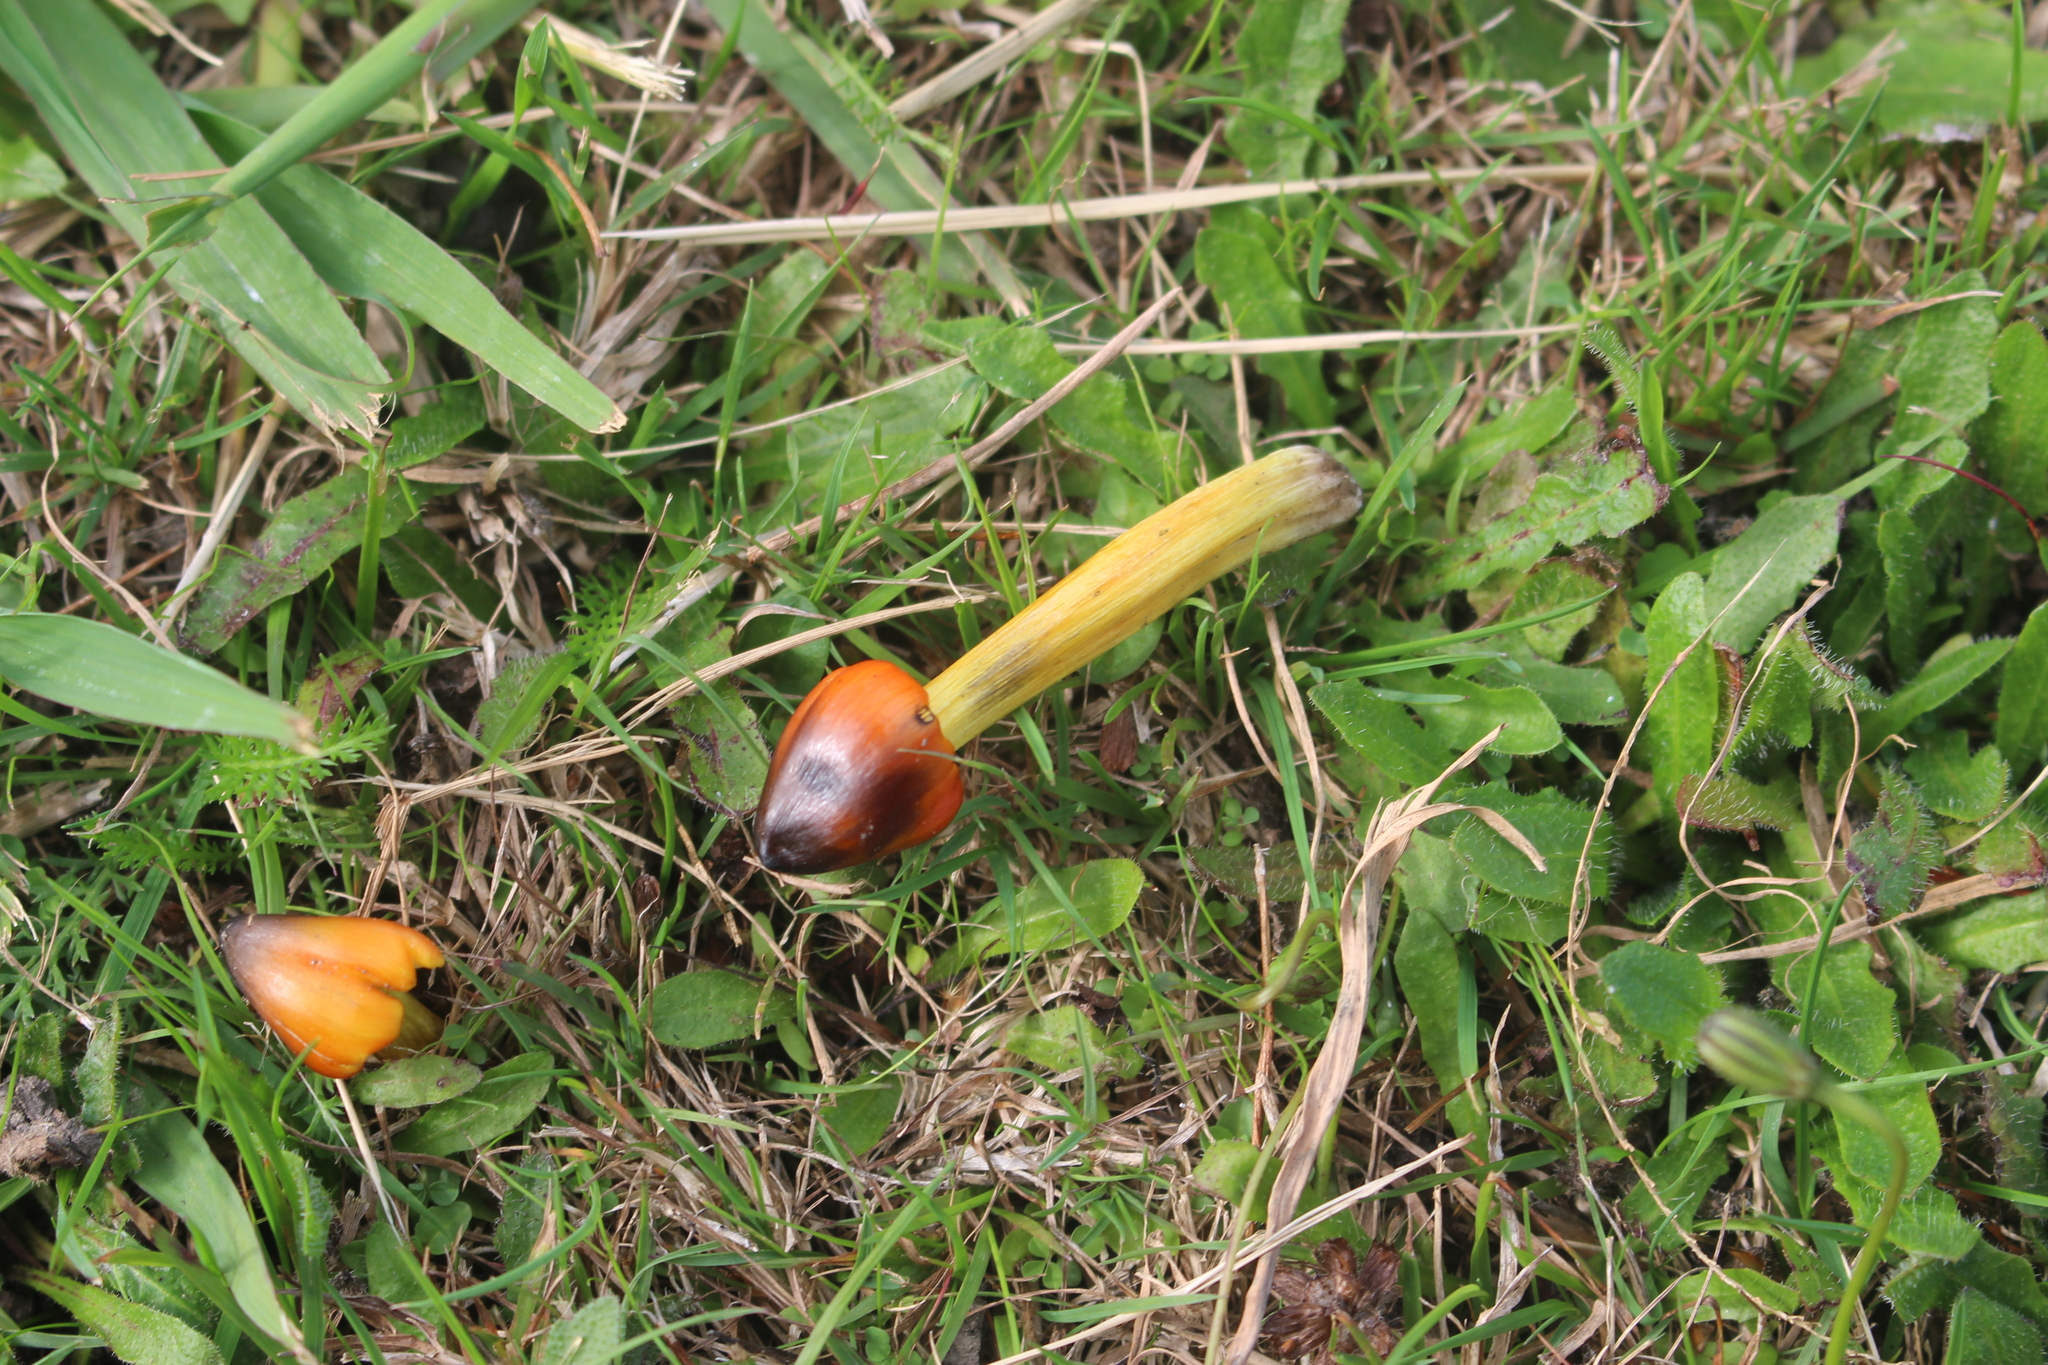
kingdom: Fungi
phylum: Basidiomycota
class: Agaricomycetes
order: Agaricales
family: Hygrophoraceae
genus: Hygrocybe
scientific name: Hygrocybe conica
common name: Blackening wax-cap
